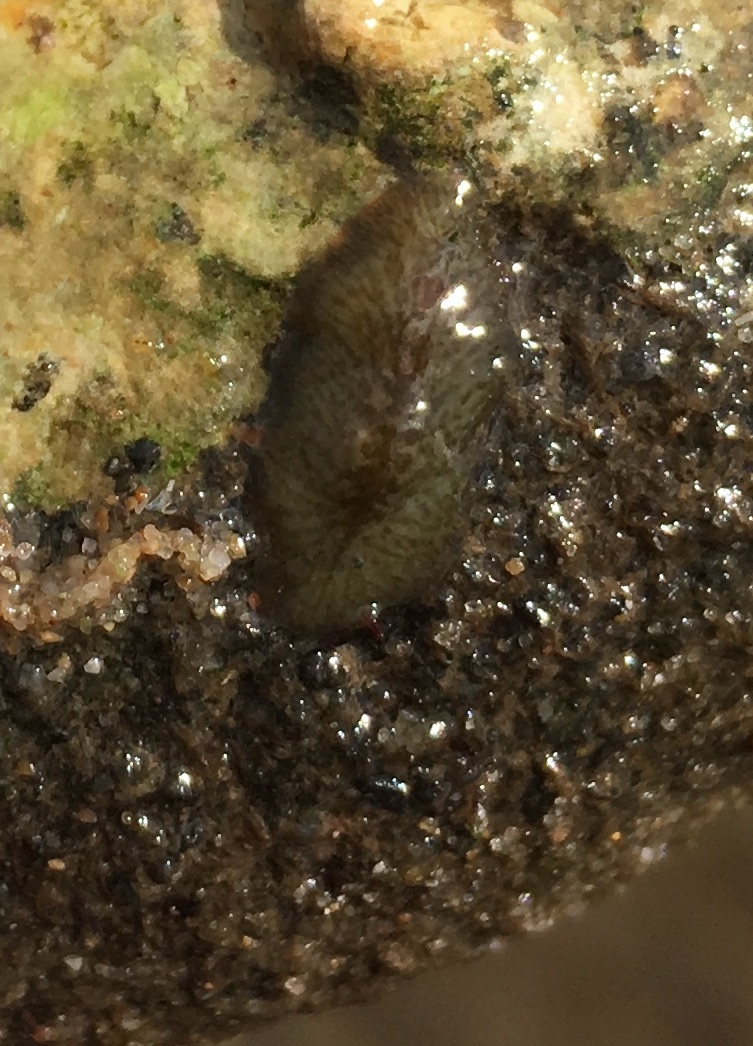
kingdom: Animalia
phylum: Platyhelminthes
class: Turbellaria
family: Cryptocelidae
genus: Hylocelis
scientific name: Hylocelis californica
